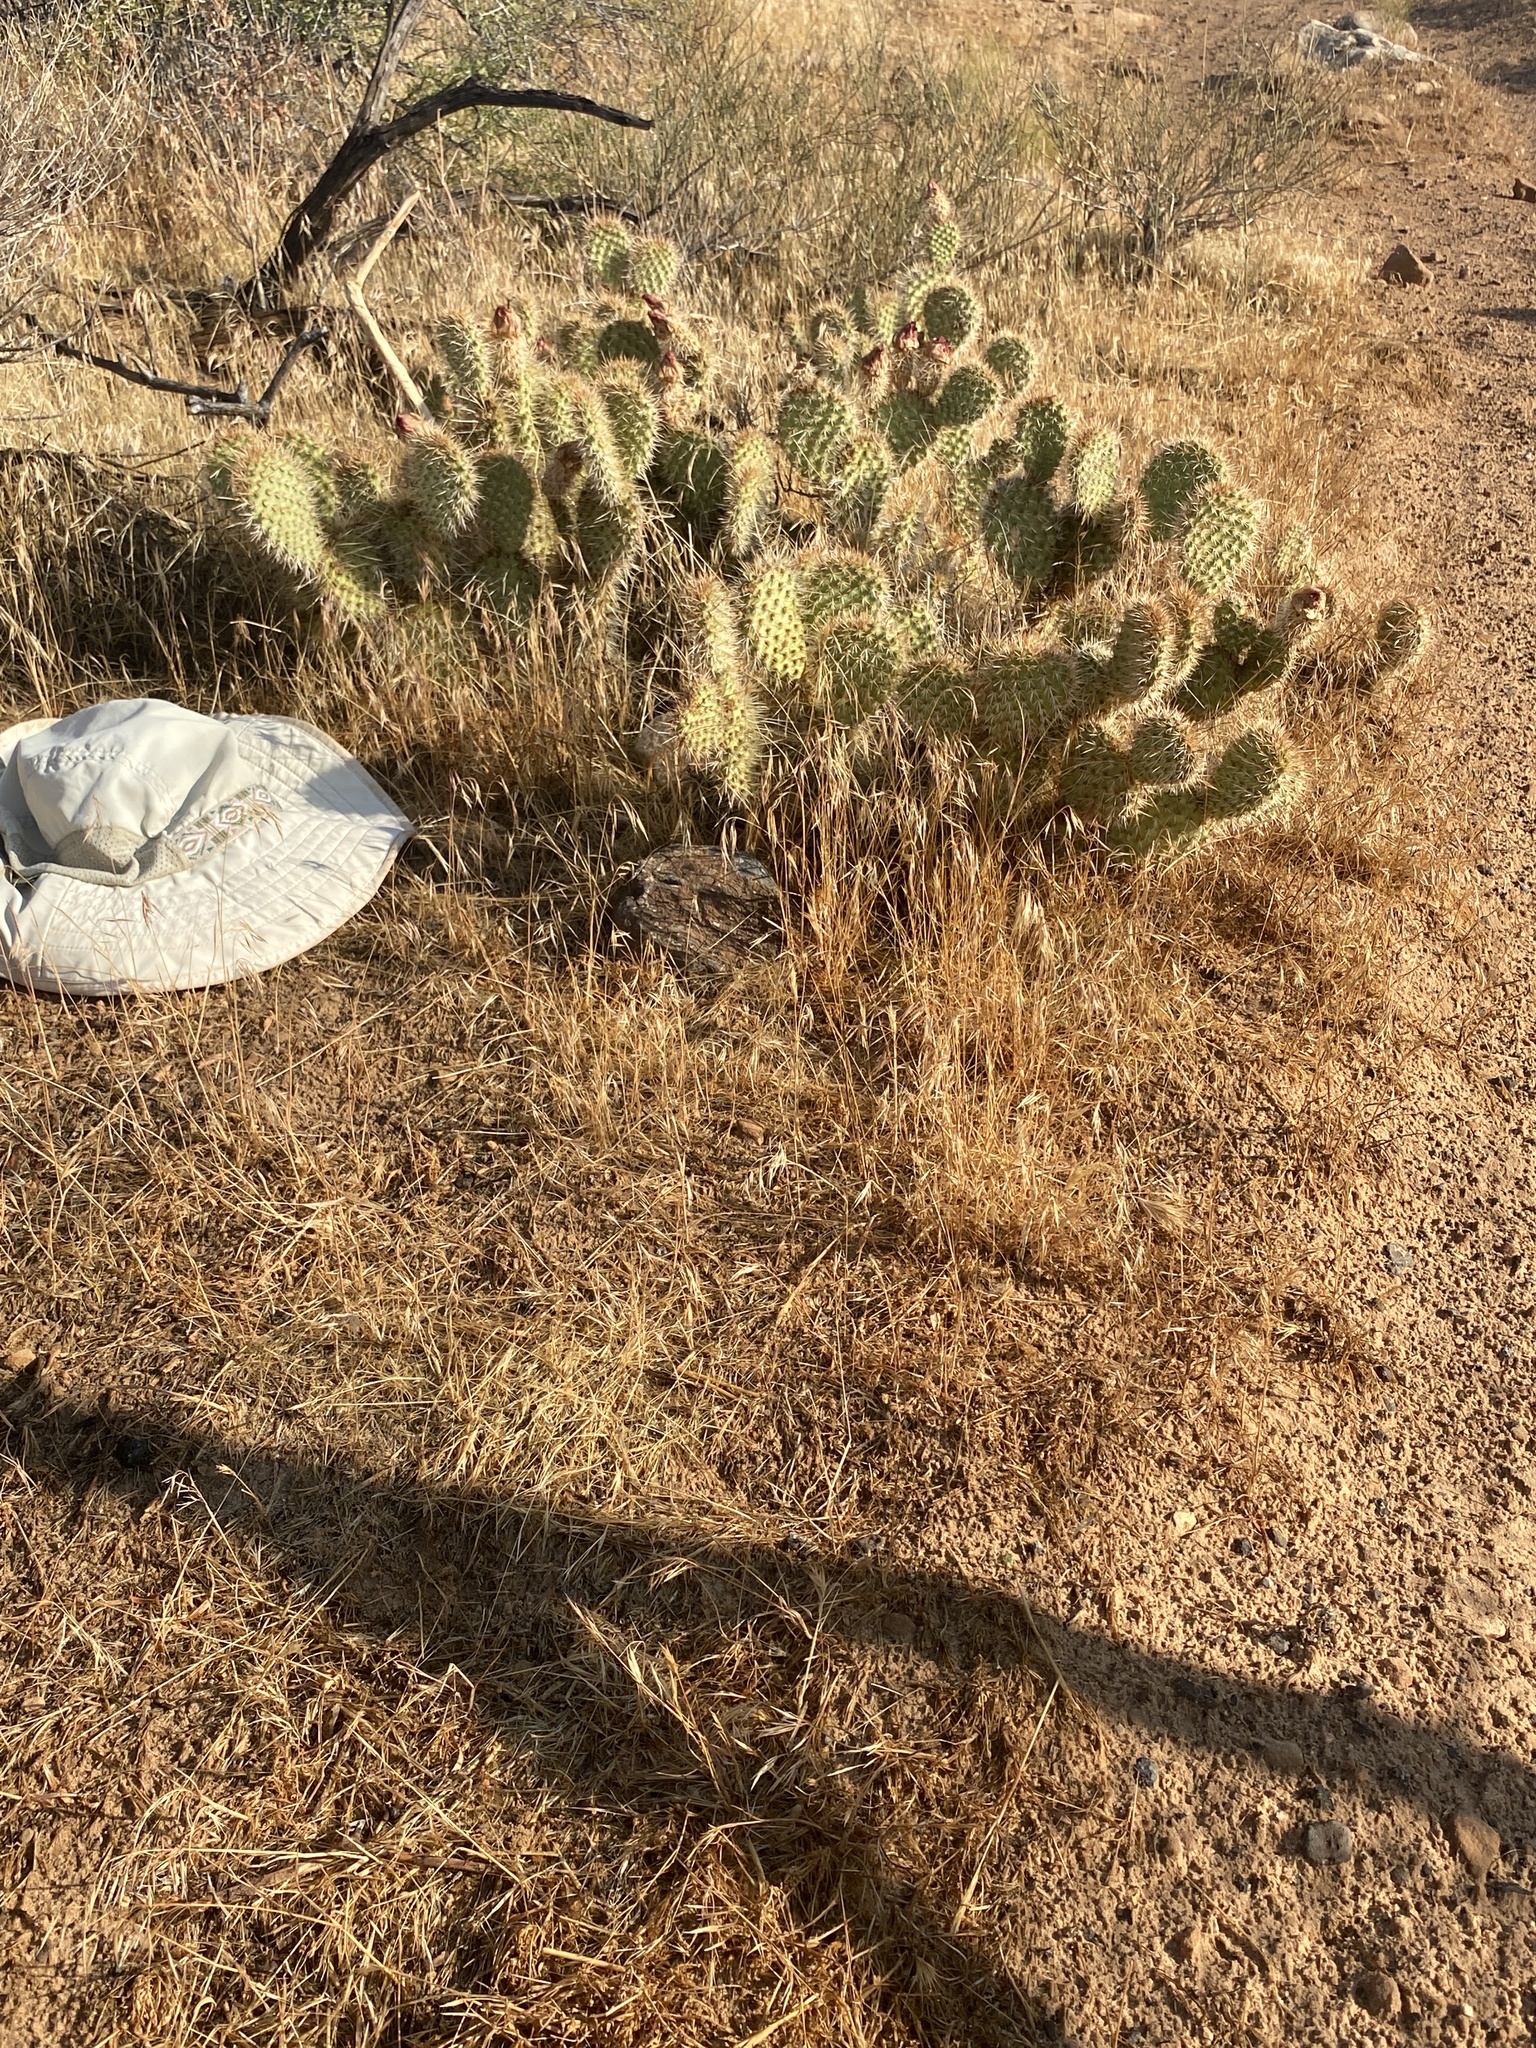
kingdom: Plantae
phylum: Tracheophyta
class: Magnoliopsida
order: Caryophyllales
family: Cactaceae
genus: Opuntia
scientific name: Opuntia polyacantha
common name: Plains prickly-pear
